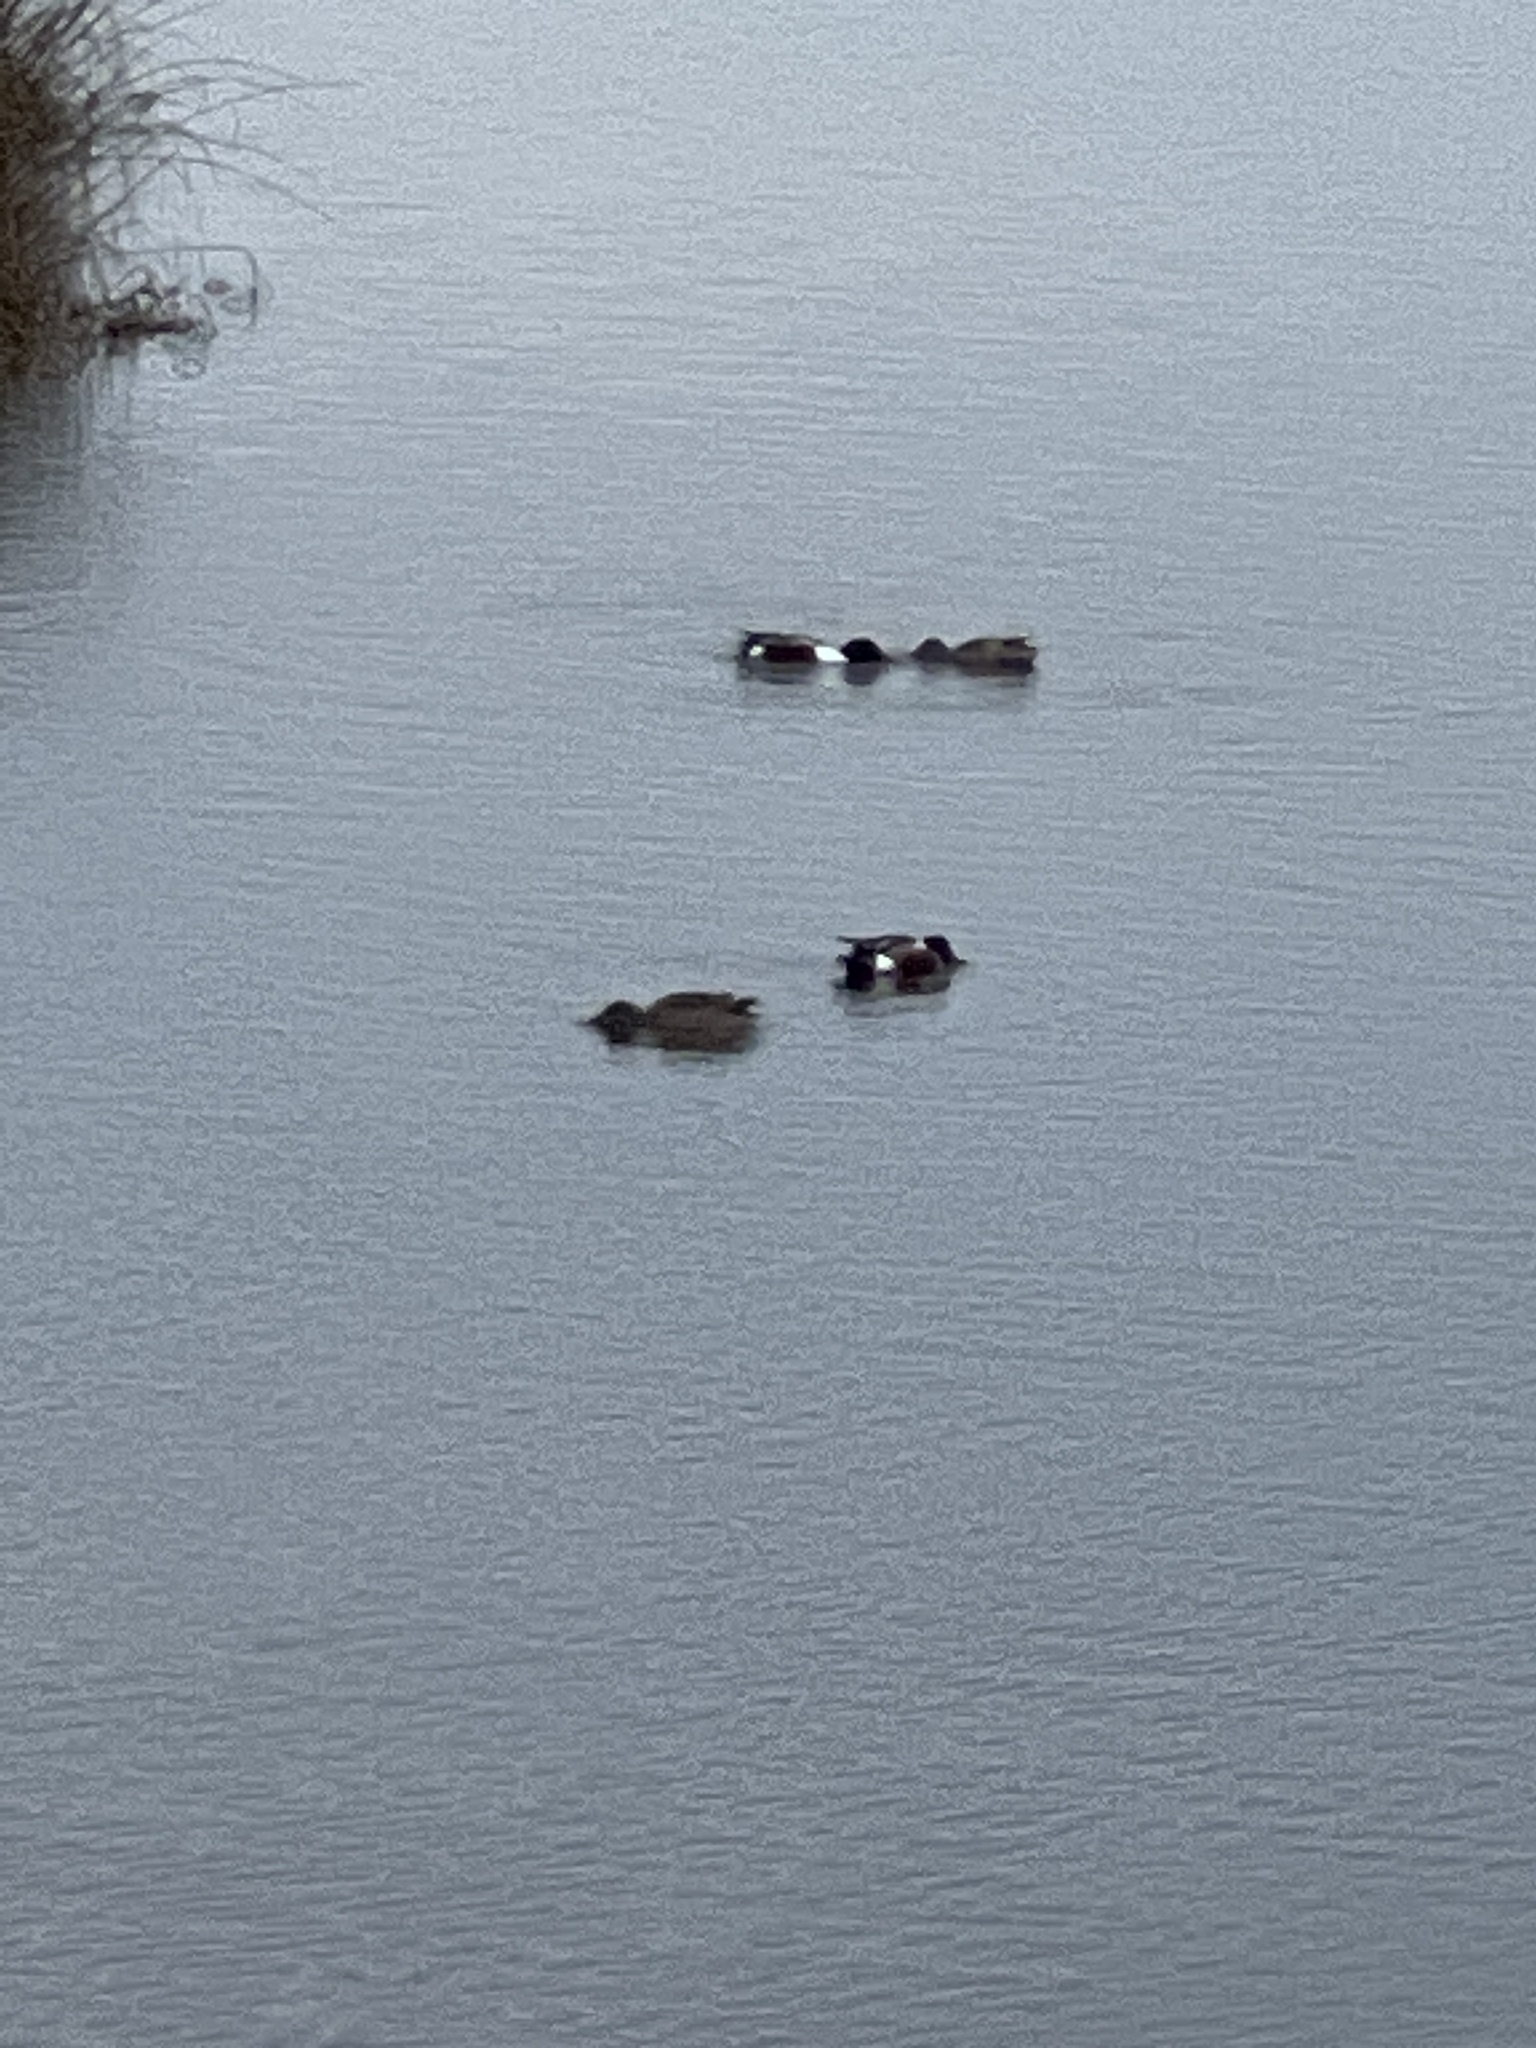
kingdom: Animalia
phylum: Chordata
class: Aves
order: Anseriformes
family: Anatidae
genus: Spatula
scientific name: Spatula clypeata
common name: Northern shoveler
